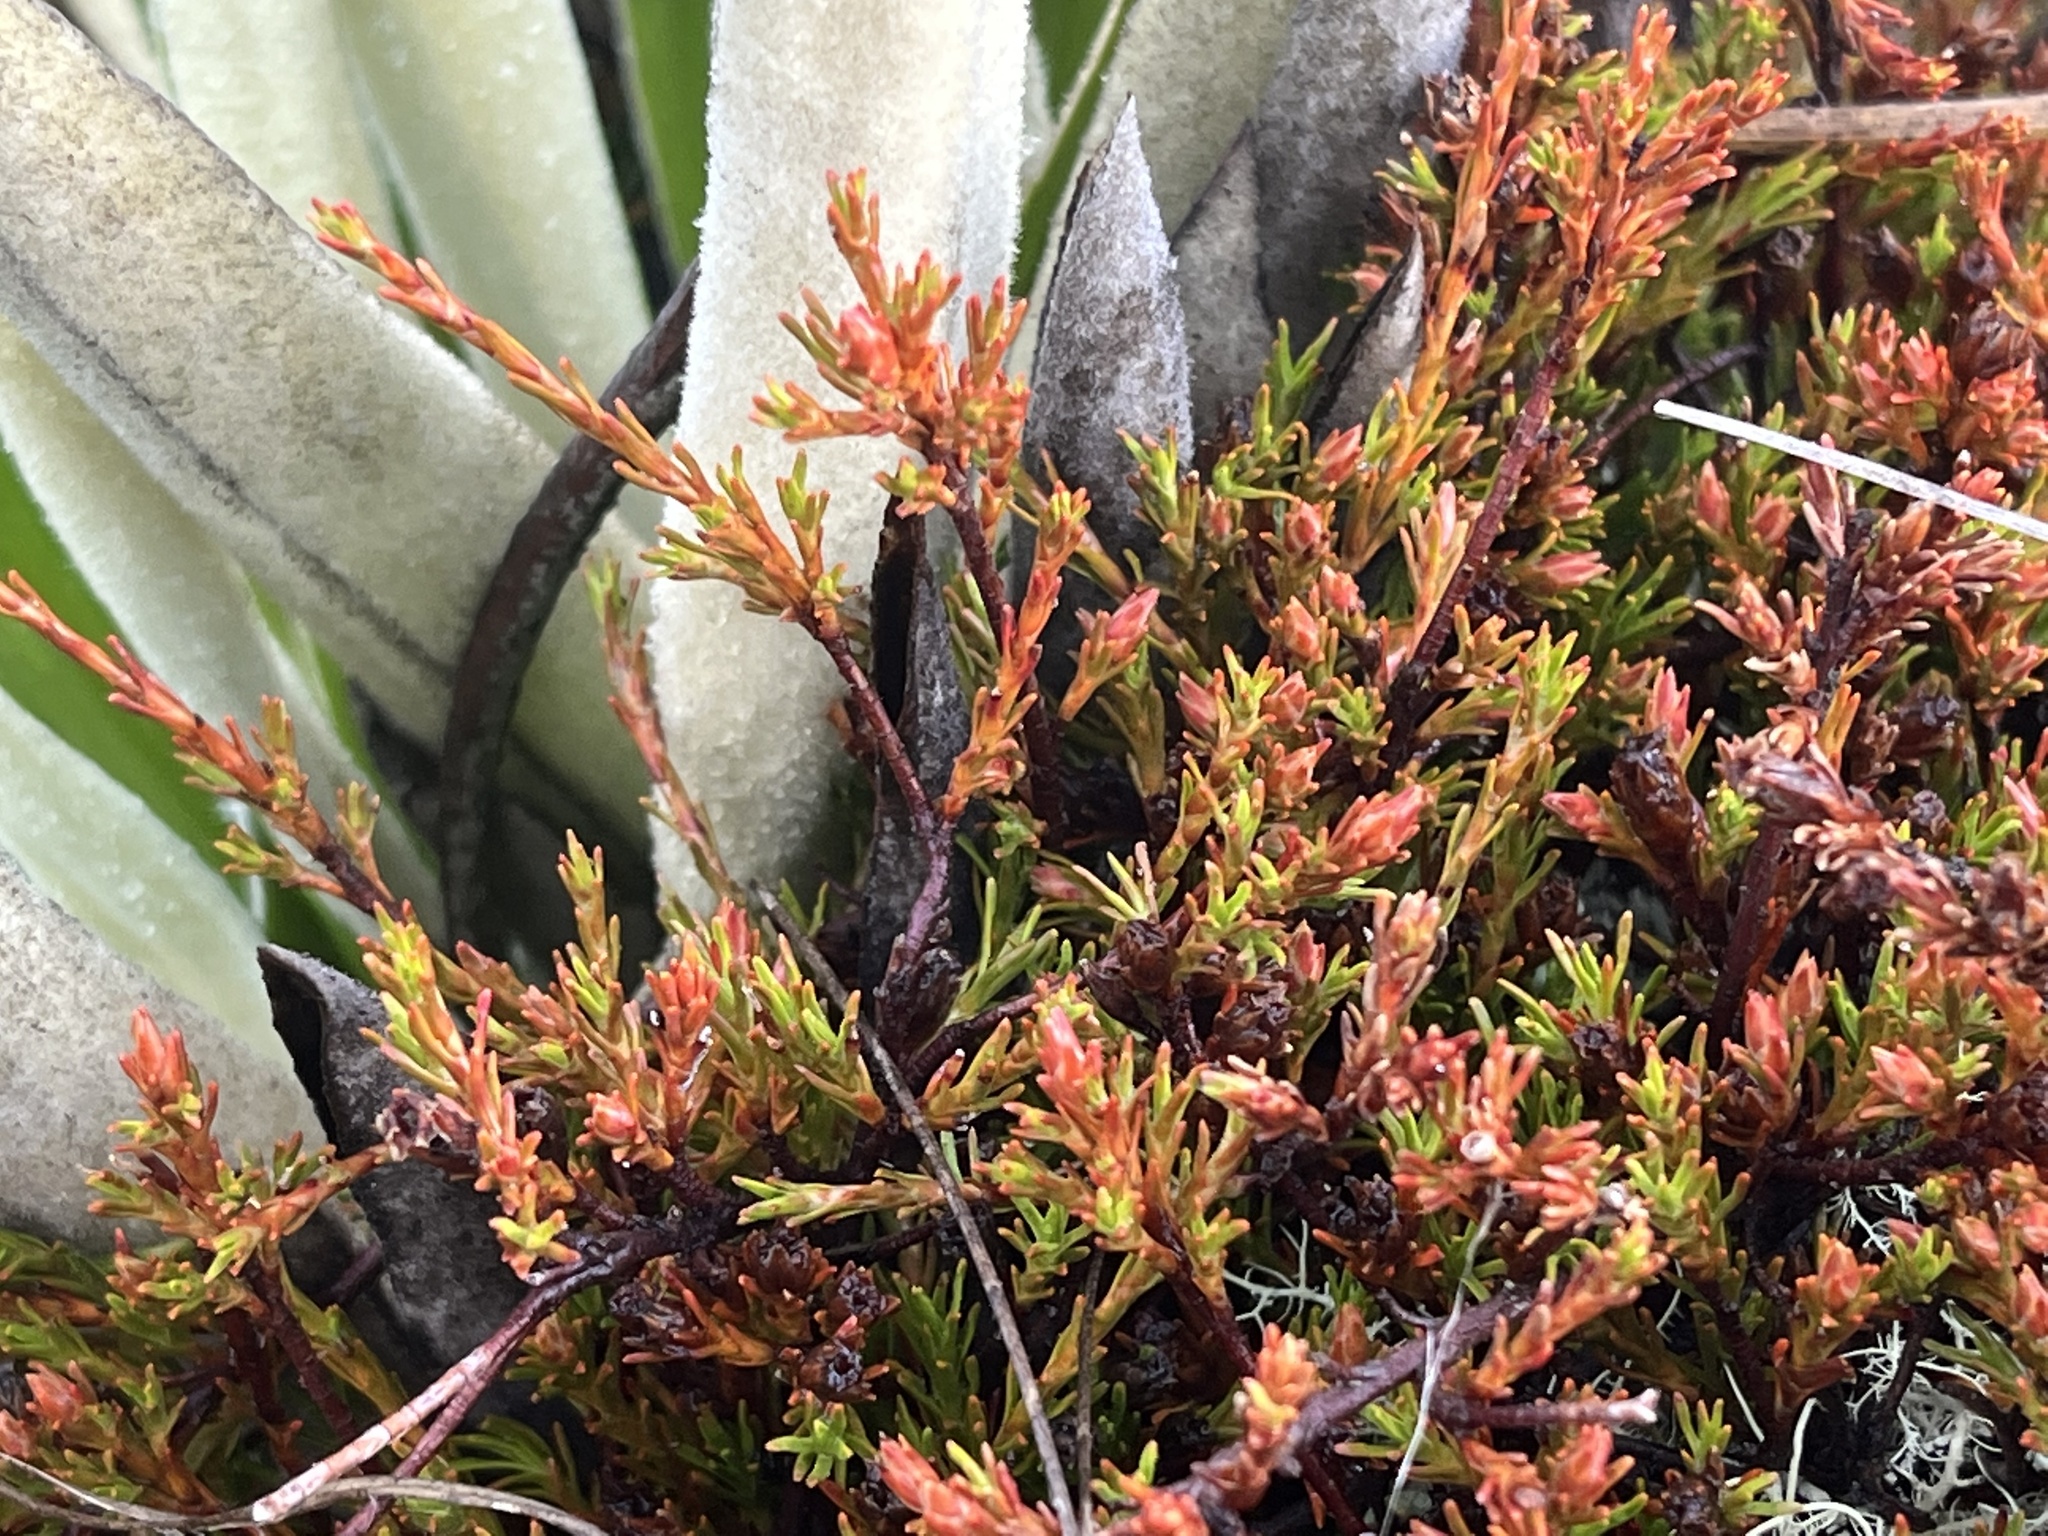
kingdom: Plantae
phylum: Tracheophyta
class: Magnoliopsida
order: Ericales
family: Ericaceae
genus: Dracophyllum
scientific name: Dracophyllum pronum
